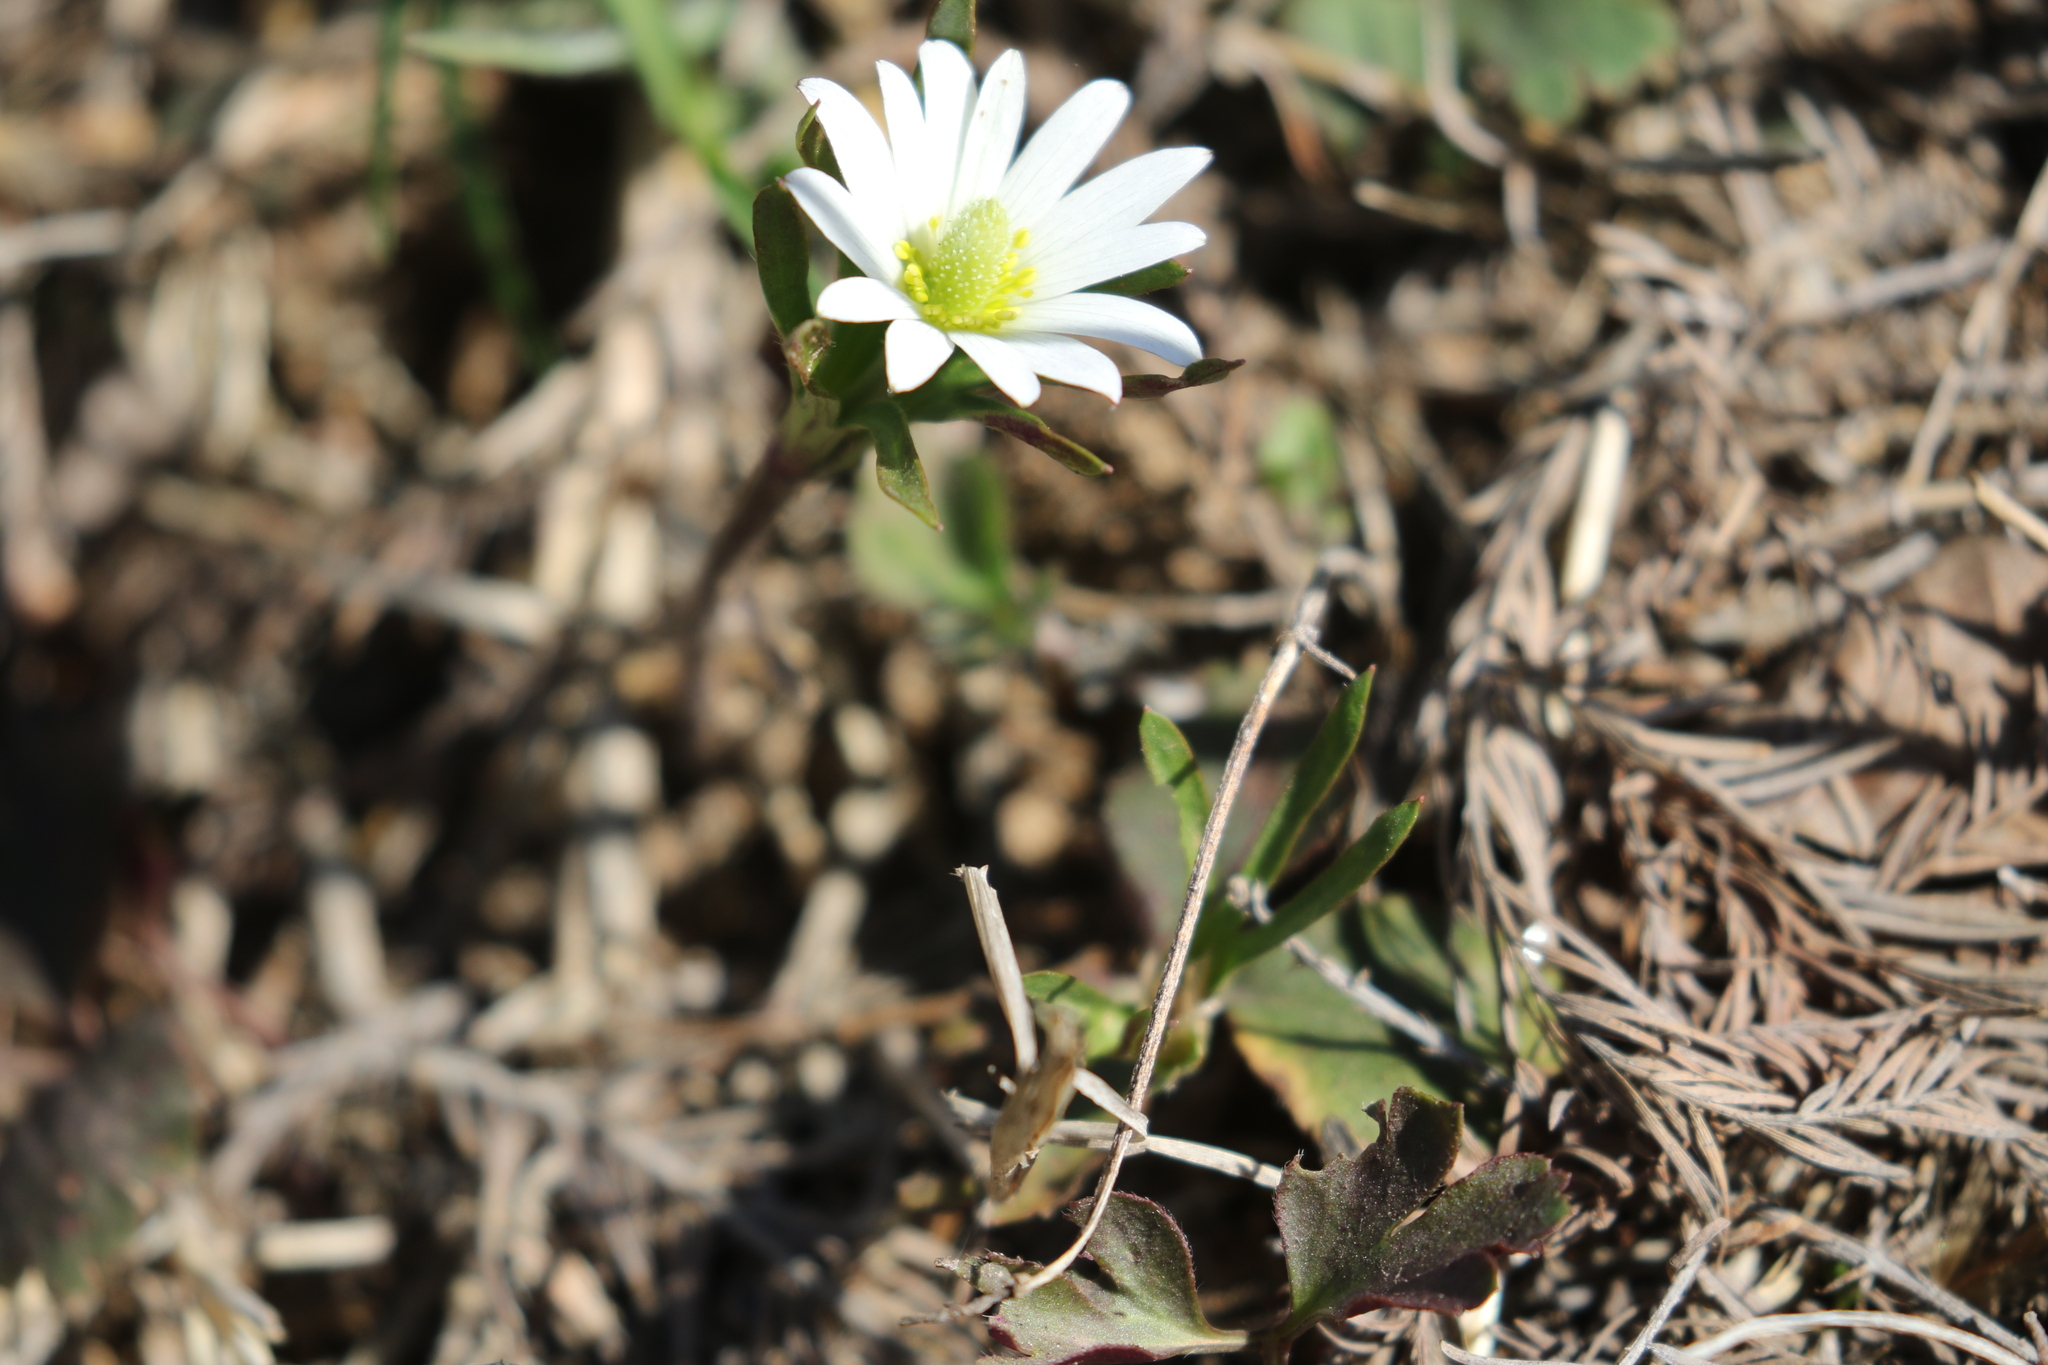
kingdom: Plantae
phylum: Tracheophyta
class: Magnoliopsida
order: Ranunculales
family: Ranunculaceae
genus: Anemone
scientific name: Anemone berlandieri
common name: Ten-petal anemone
